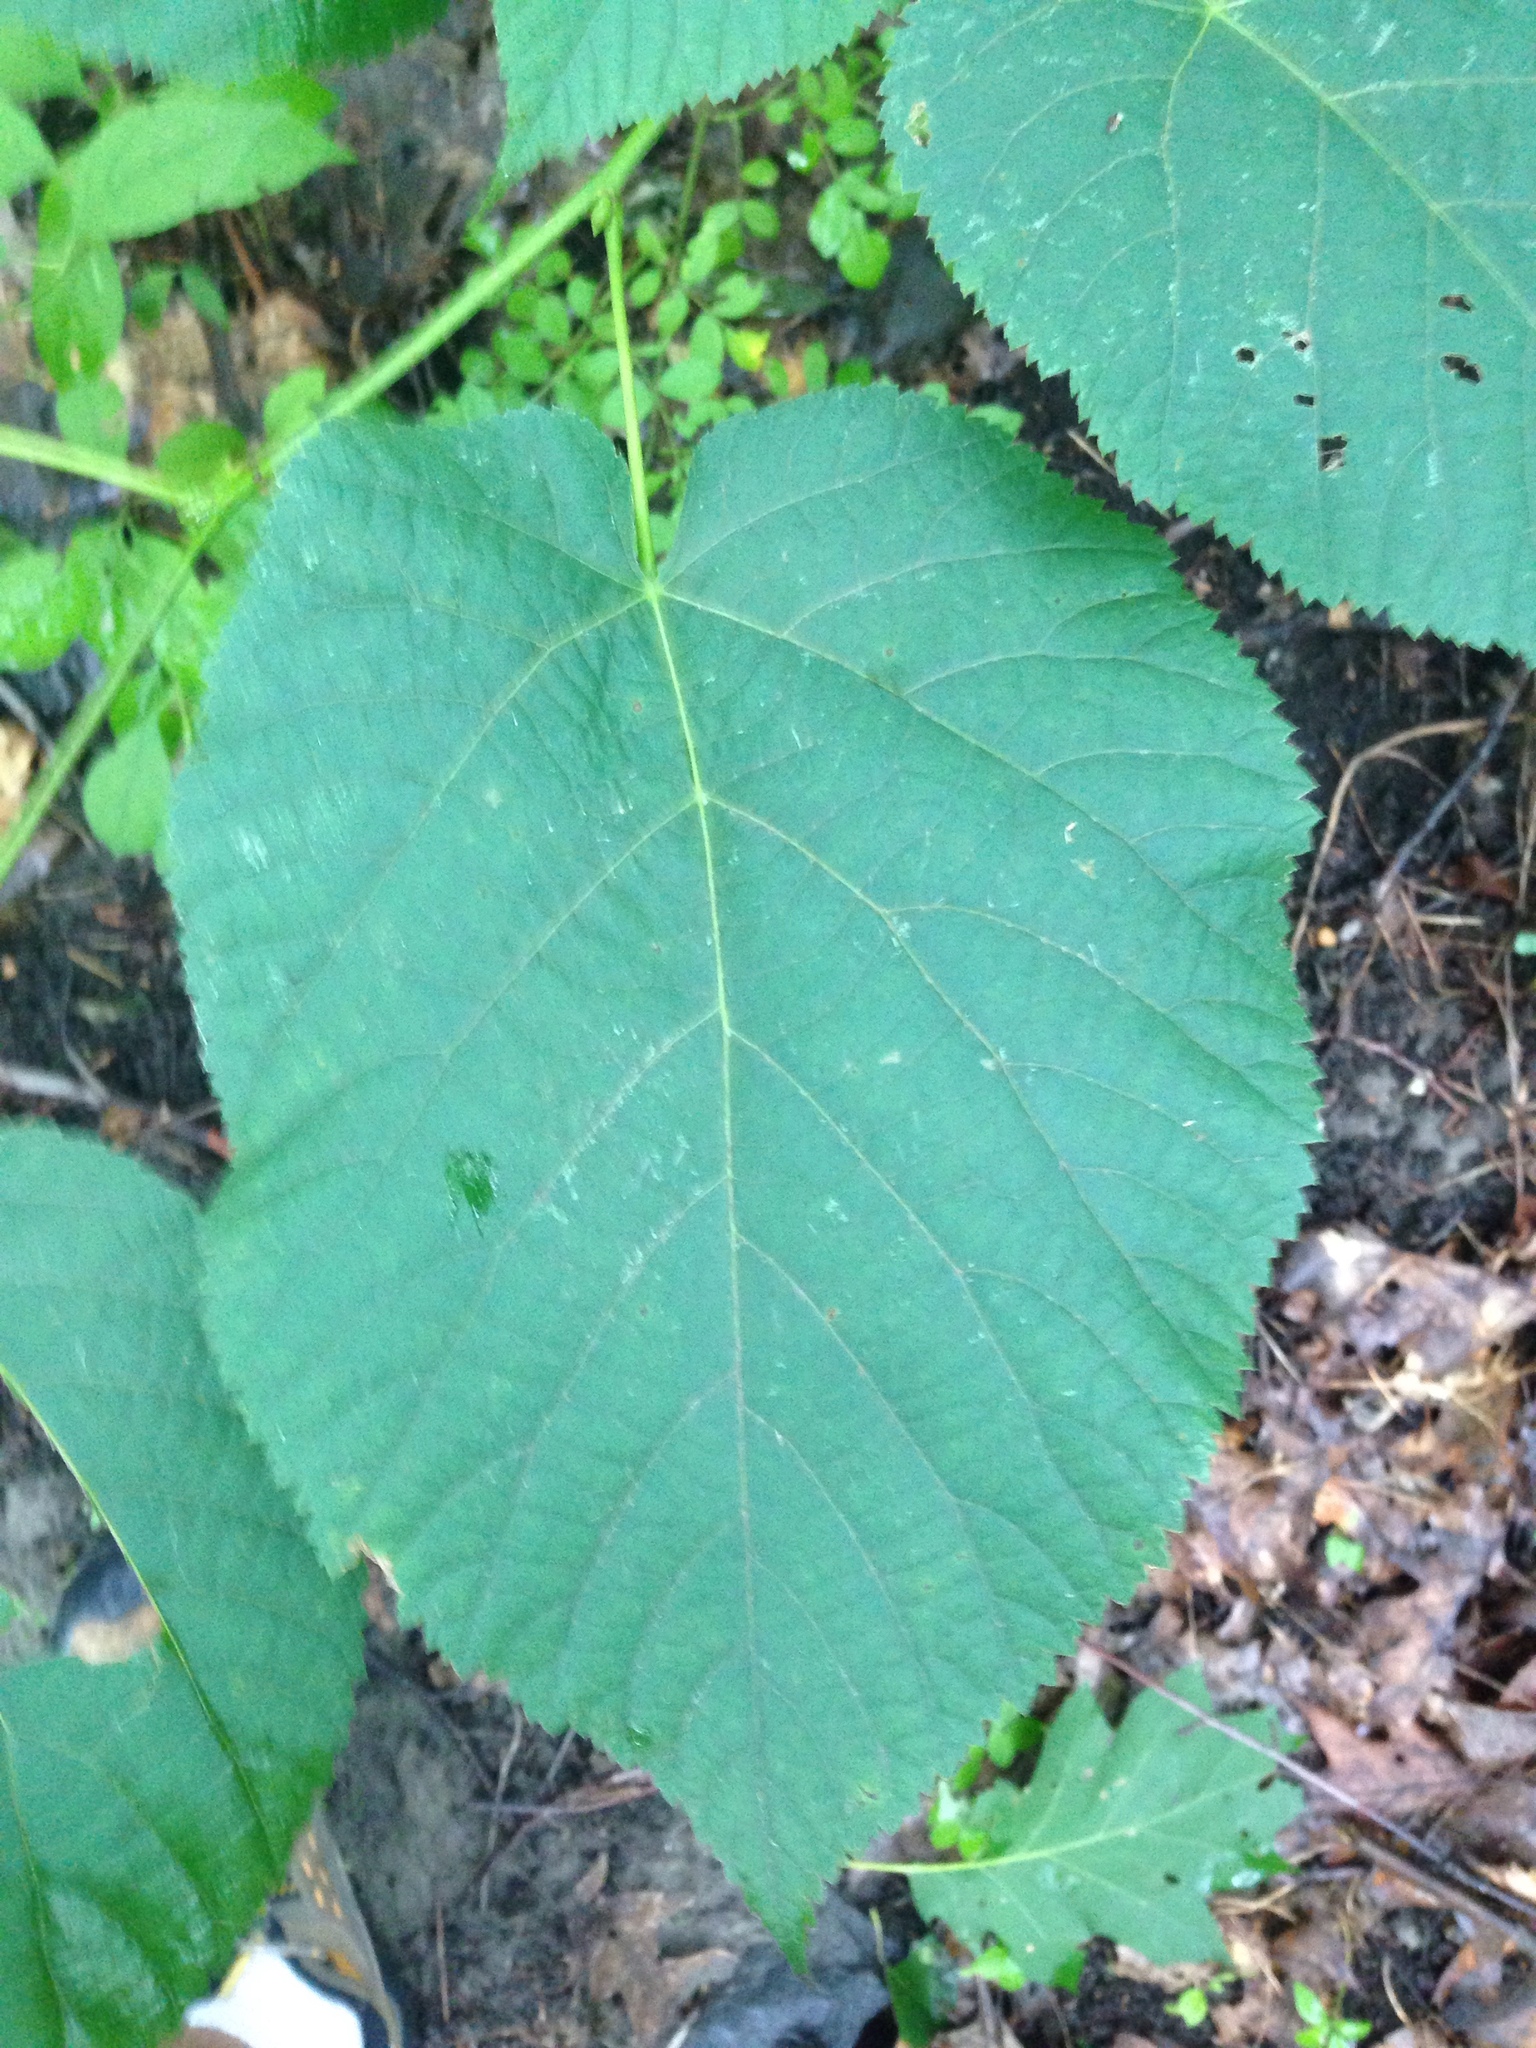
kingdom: Plantae
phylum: Tracheophyta
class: Magnoliopsida
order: Malvales
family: Malvaceae
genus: Tilia
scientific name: Tilia americana
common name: Basswood
